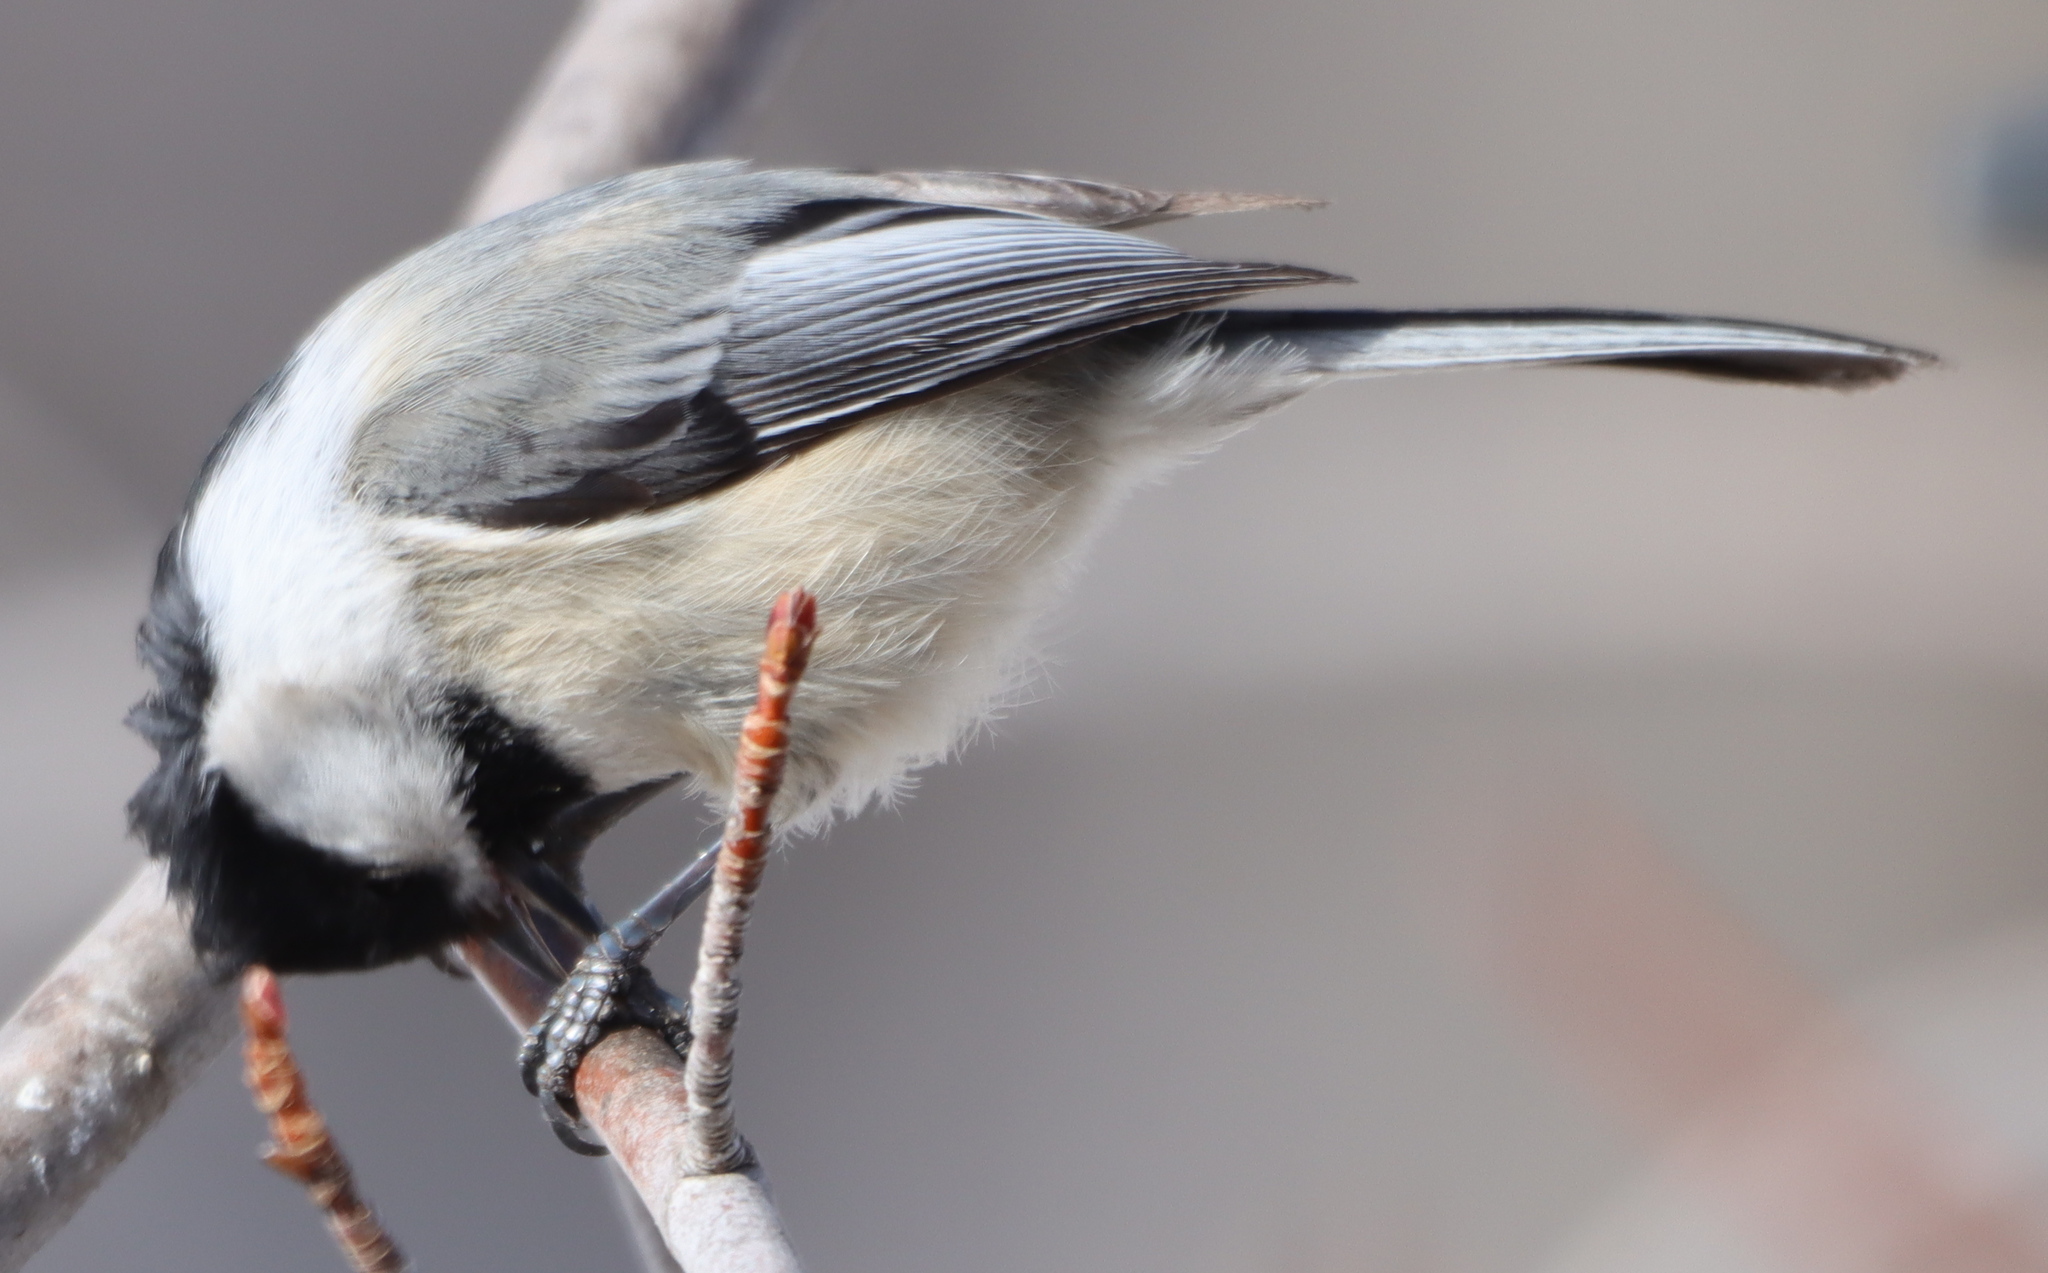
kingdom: Animalia
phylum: Chordata
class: Aves
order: Passeriformes
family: Paridae
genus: Poecile
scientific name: Poecile atricapillus
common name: Black-capped chickadee
